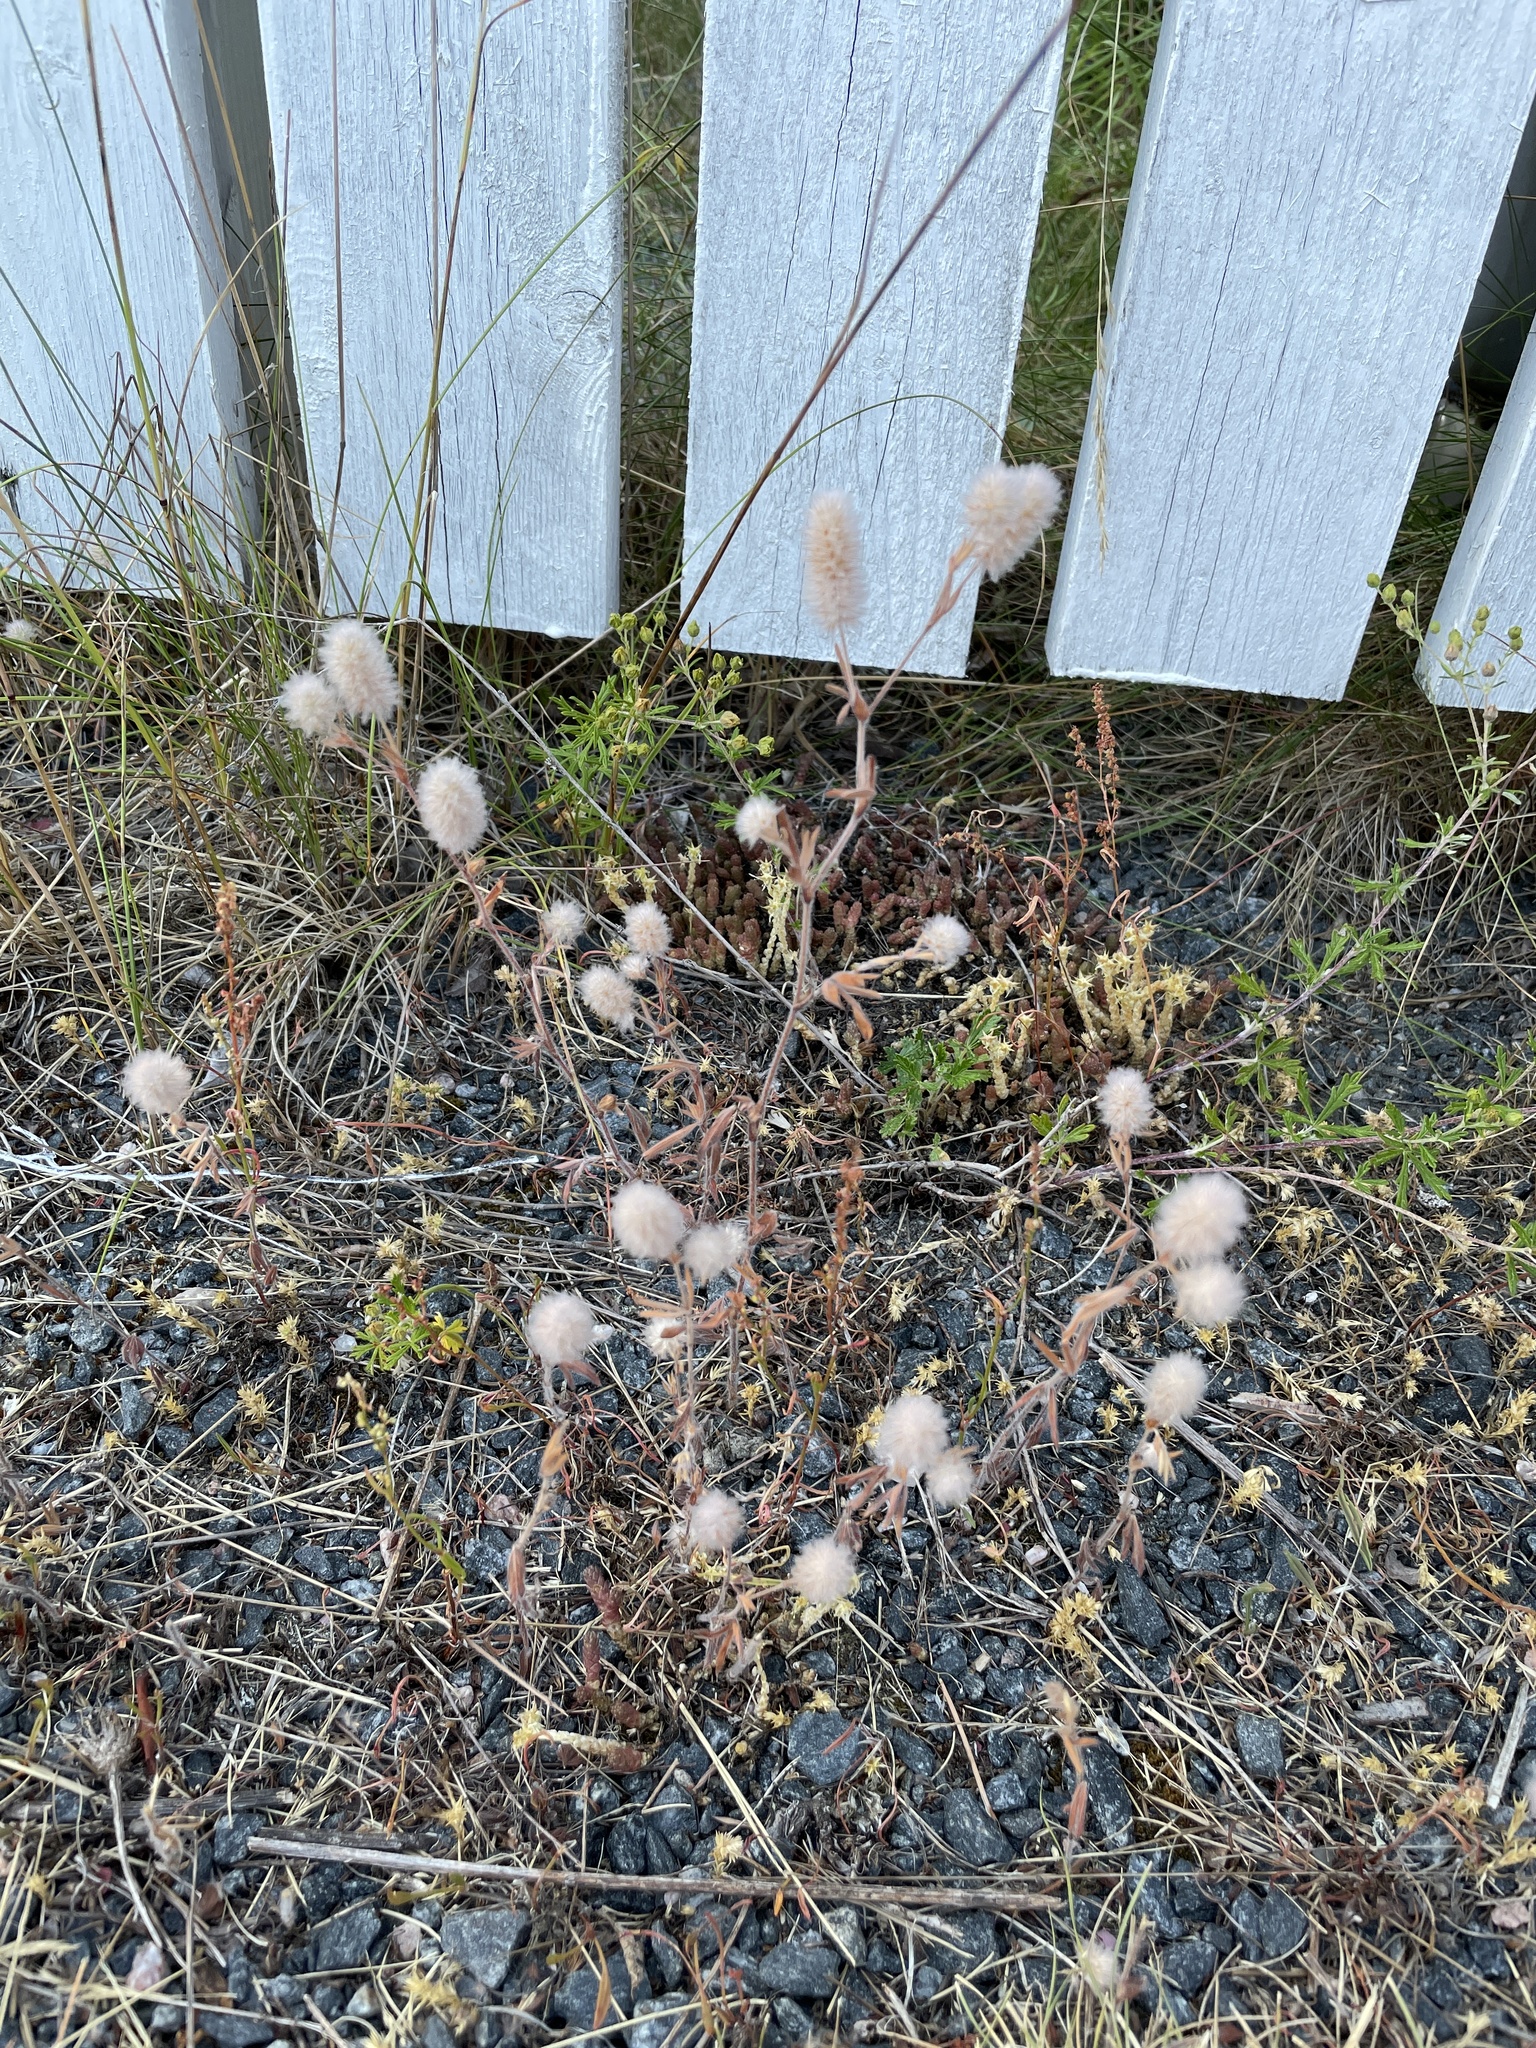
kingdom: Plantae
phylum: Tracheophyta
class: Magnoliopsida
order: Fabales
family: Fabaceae
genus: Trifolium
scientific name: Trifolium arvense
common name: Hare's-foot clover
